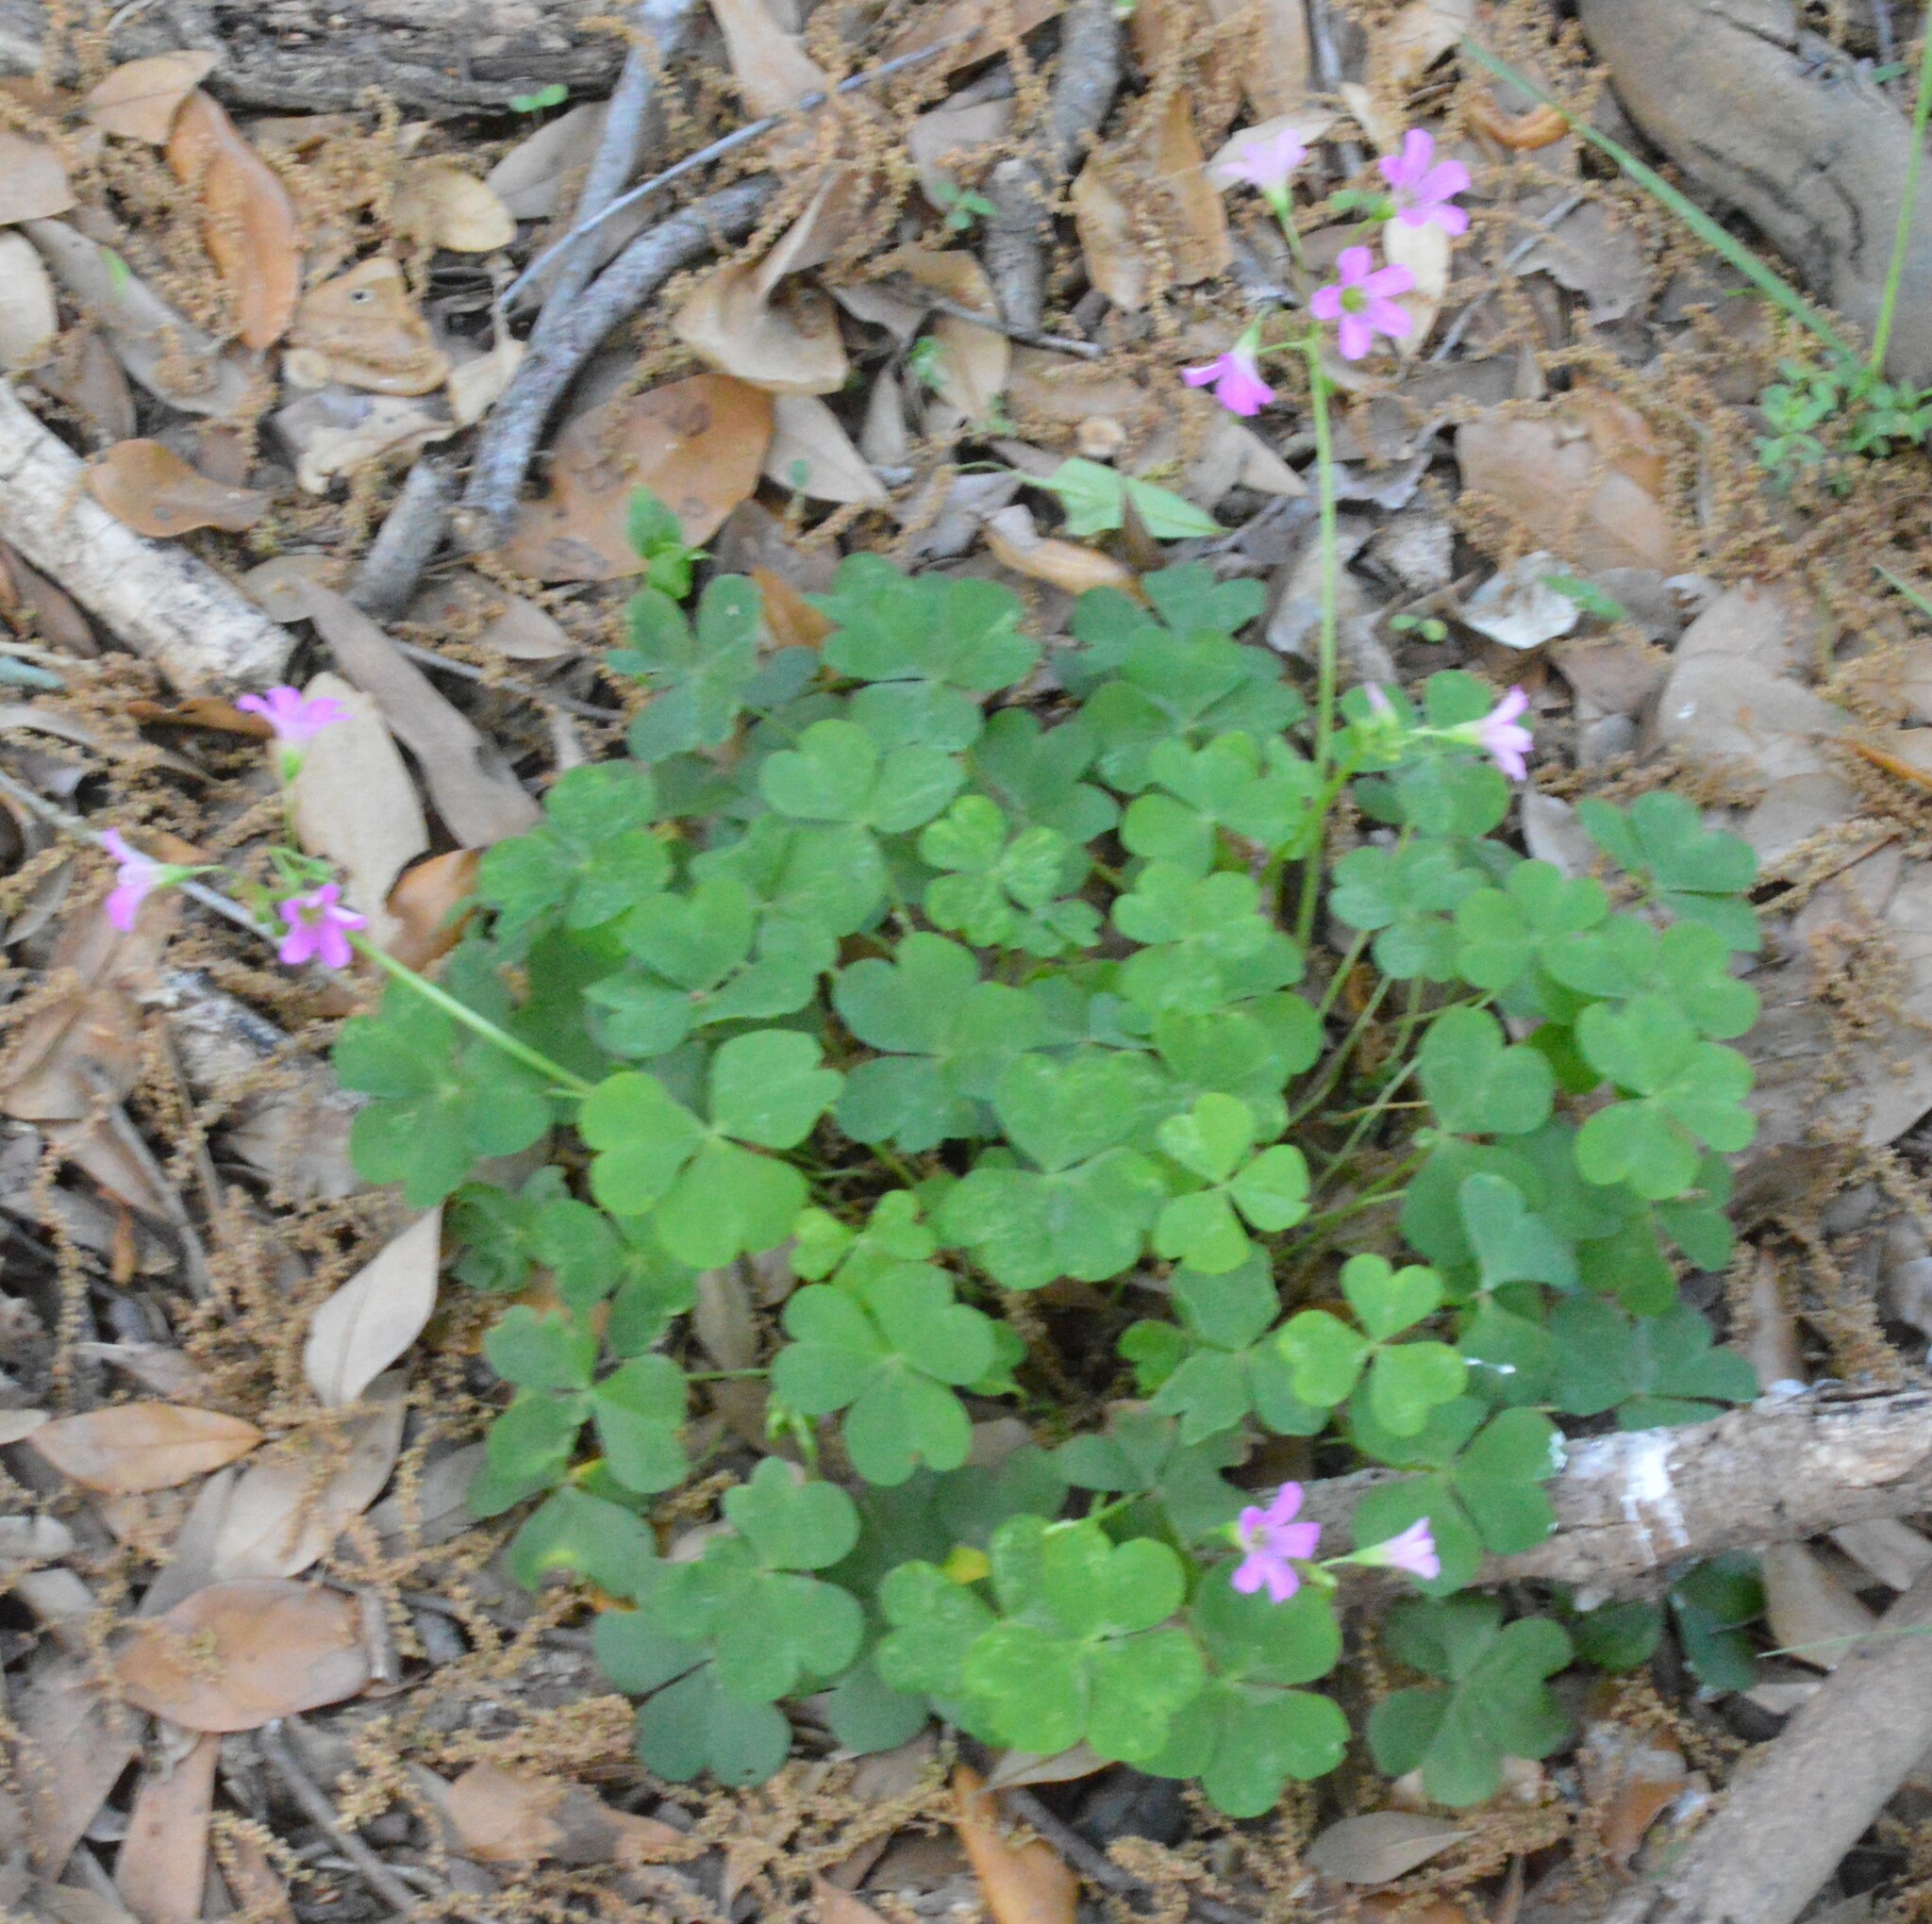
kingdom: Plantae
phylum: Tracheophyta
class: Magnoliopsida
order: Oxalidales
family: Oxalidaceae
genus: Oxalis
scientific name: Oxalis debilis
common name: Large-flowered pink-sorrel
